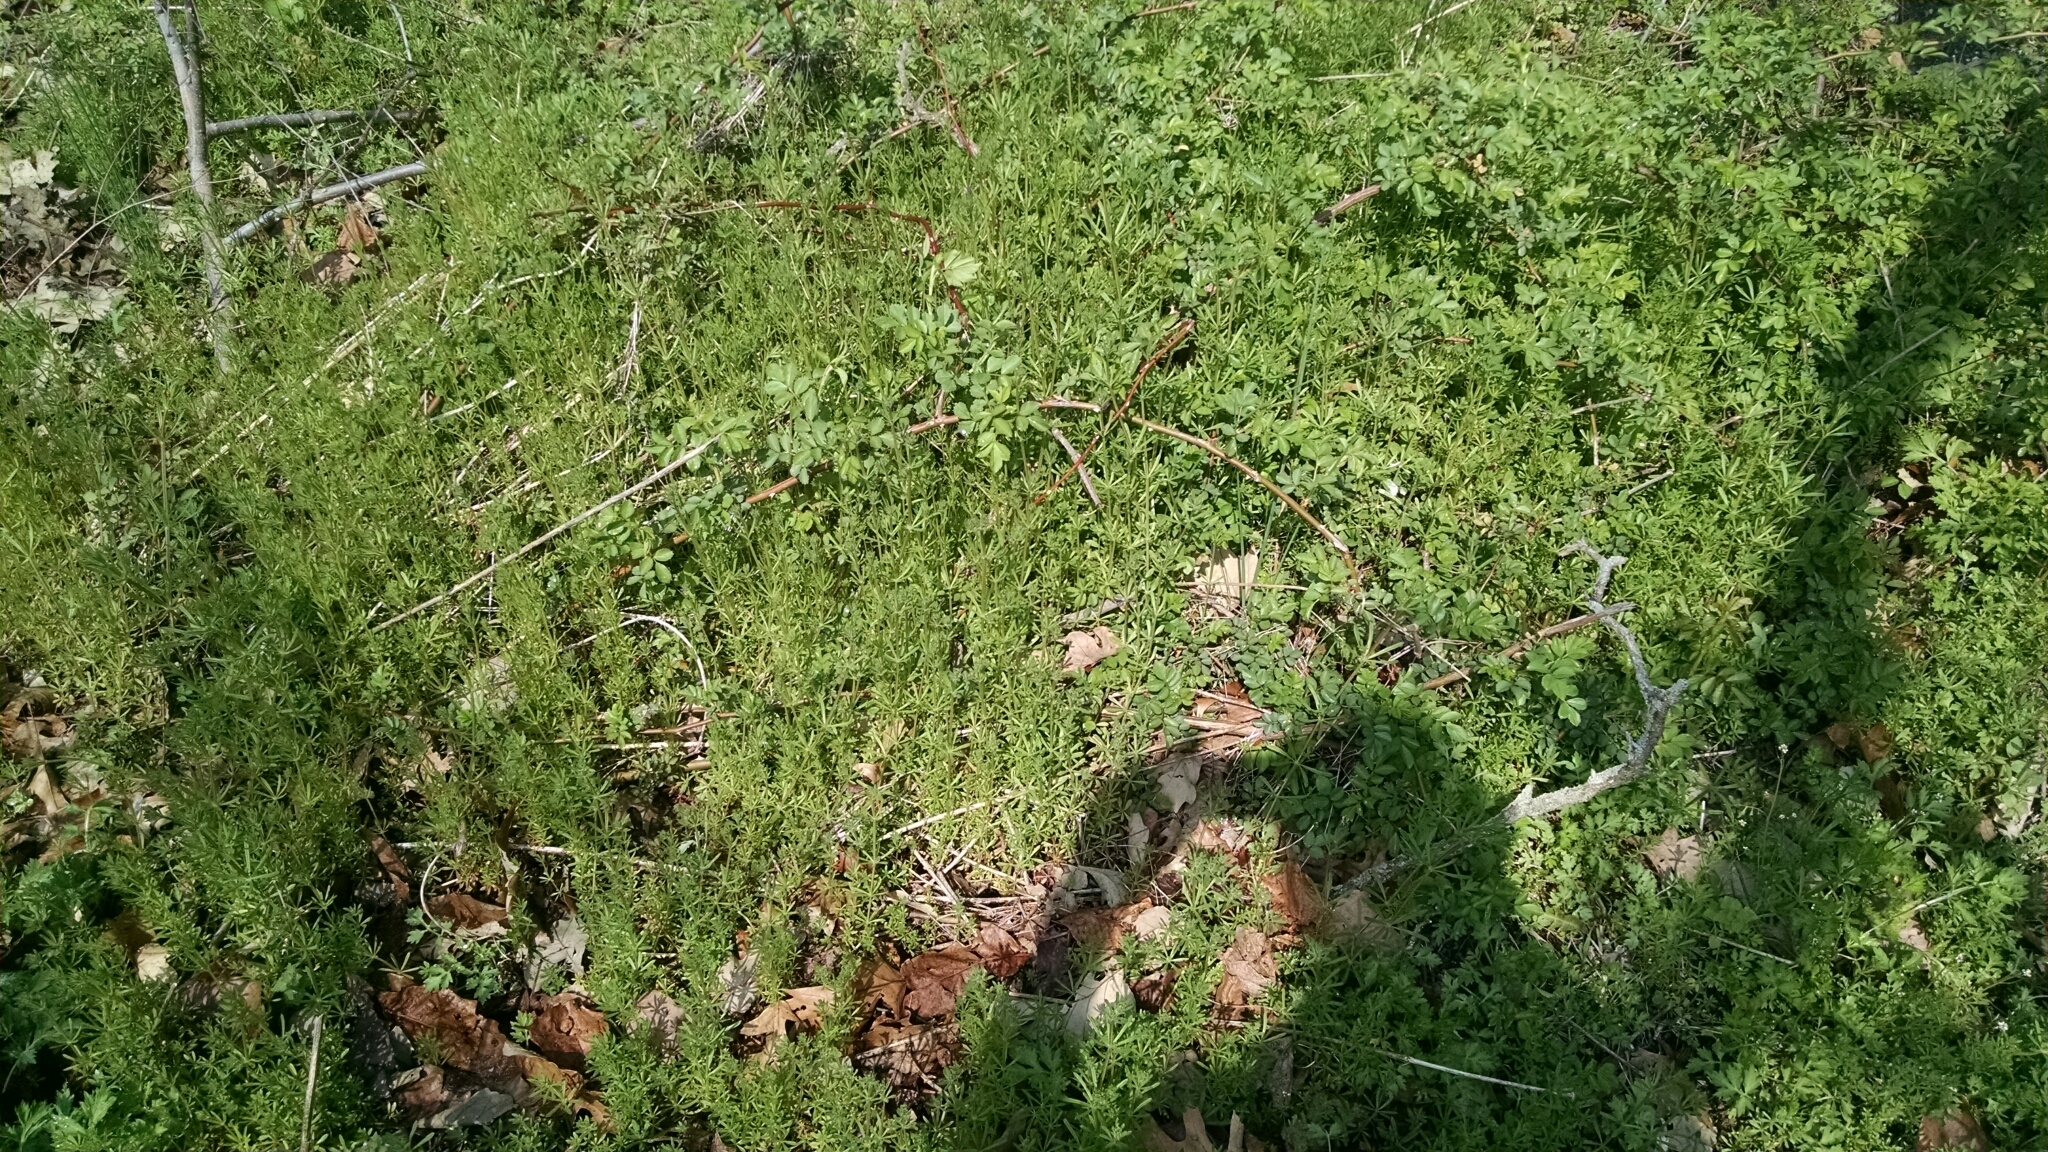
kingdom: Plantae
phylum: Tracheophyta
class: Magnoliopsida
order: Gentianales
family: Rubiaceae
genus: Galium
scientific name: Galium aparine
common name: Cleavers
